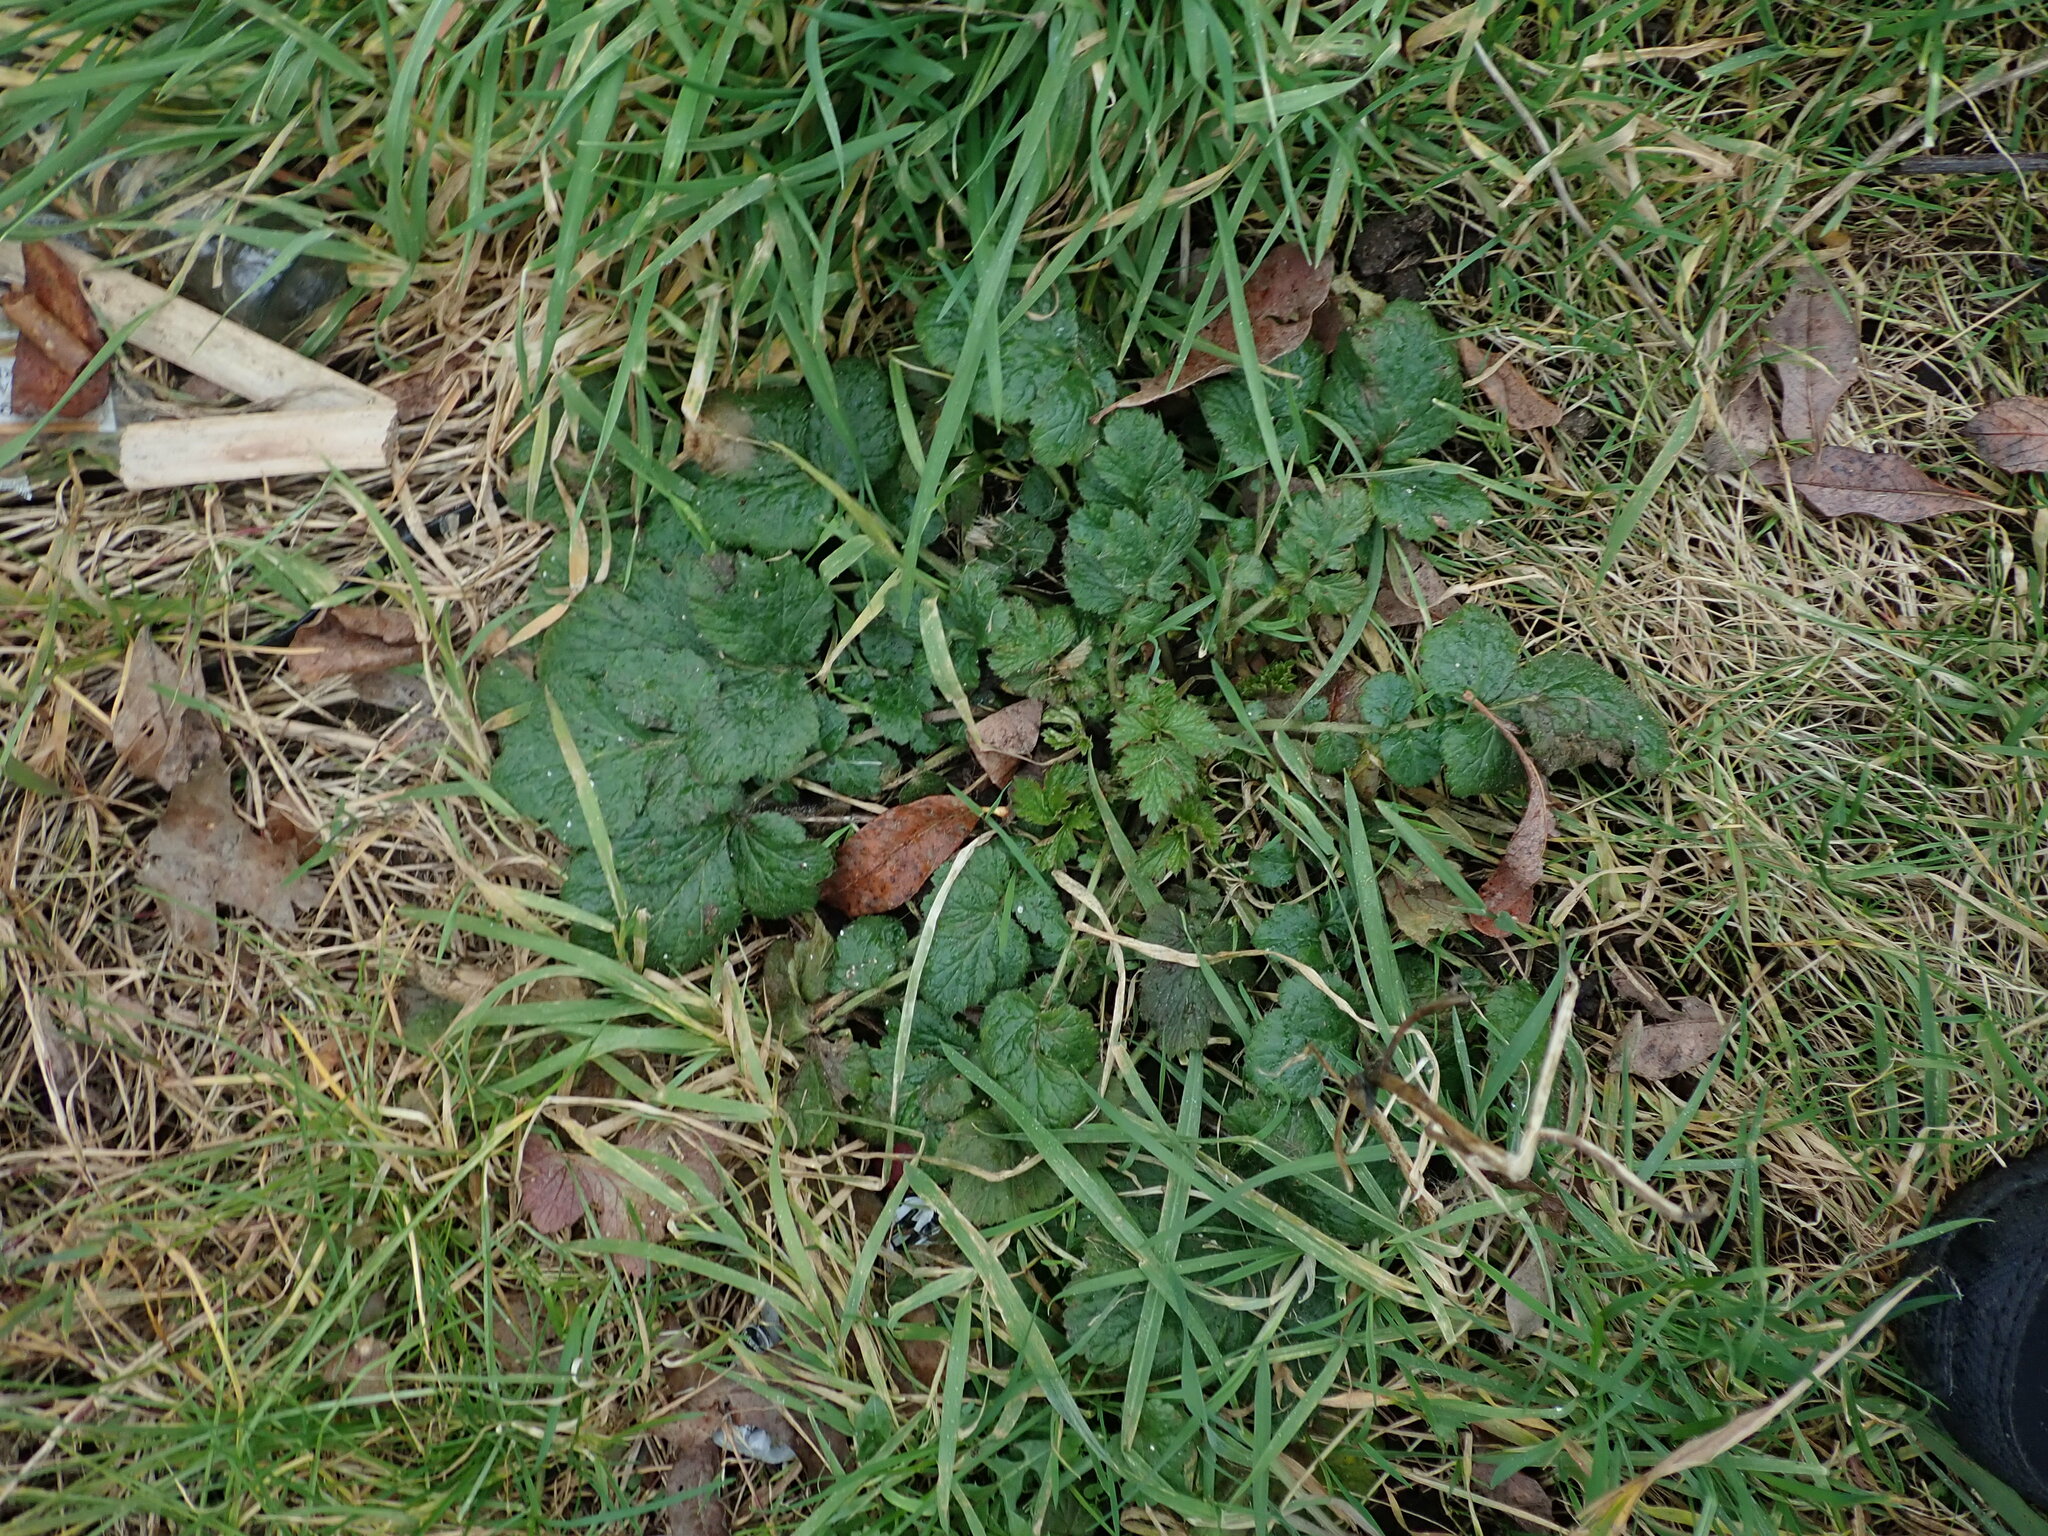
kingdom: Plantae
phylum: Tracheophyta
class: Magnoliopsida
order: Rosales
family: Rosaceae
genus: Geum
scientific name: Geum urbanum
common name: Wood avens
